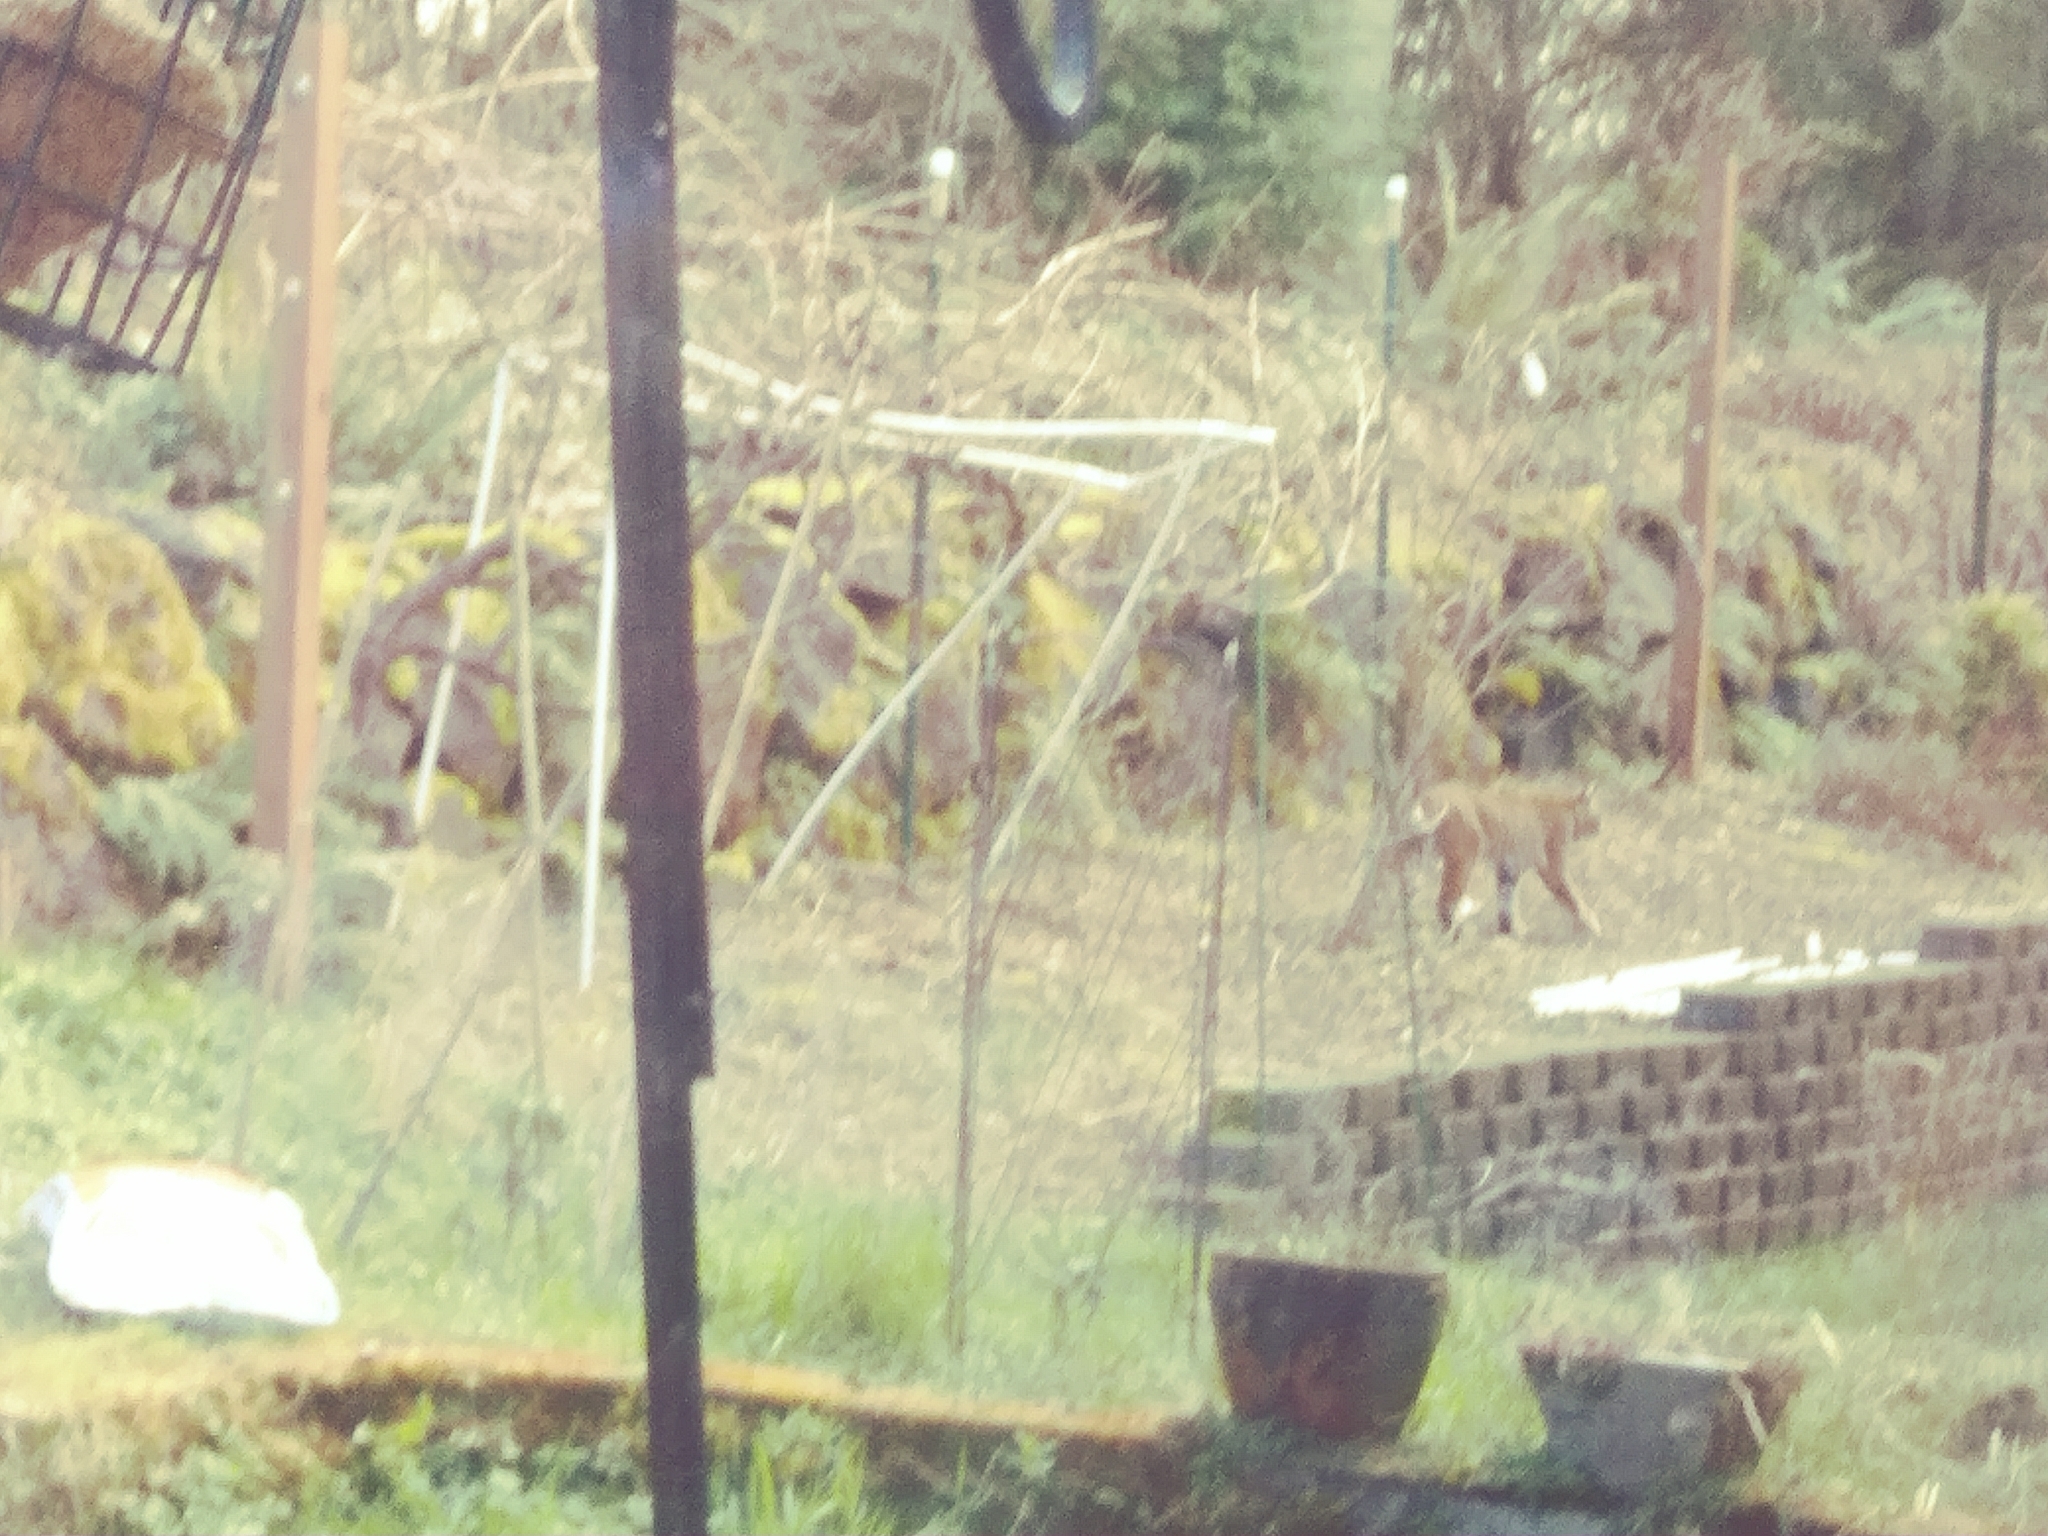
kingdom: Animalia
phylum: Chordata
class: Mammalia
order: Carnivora
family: Felidae
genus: Lynx
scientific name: Lynx rufus
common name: Bobcat
